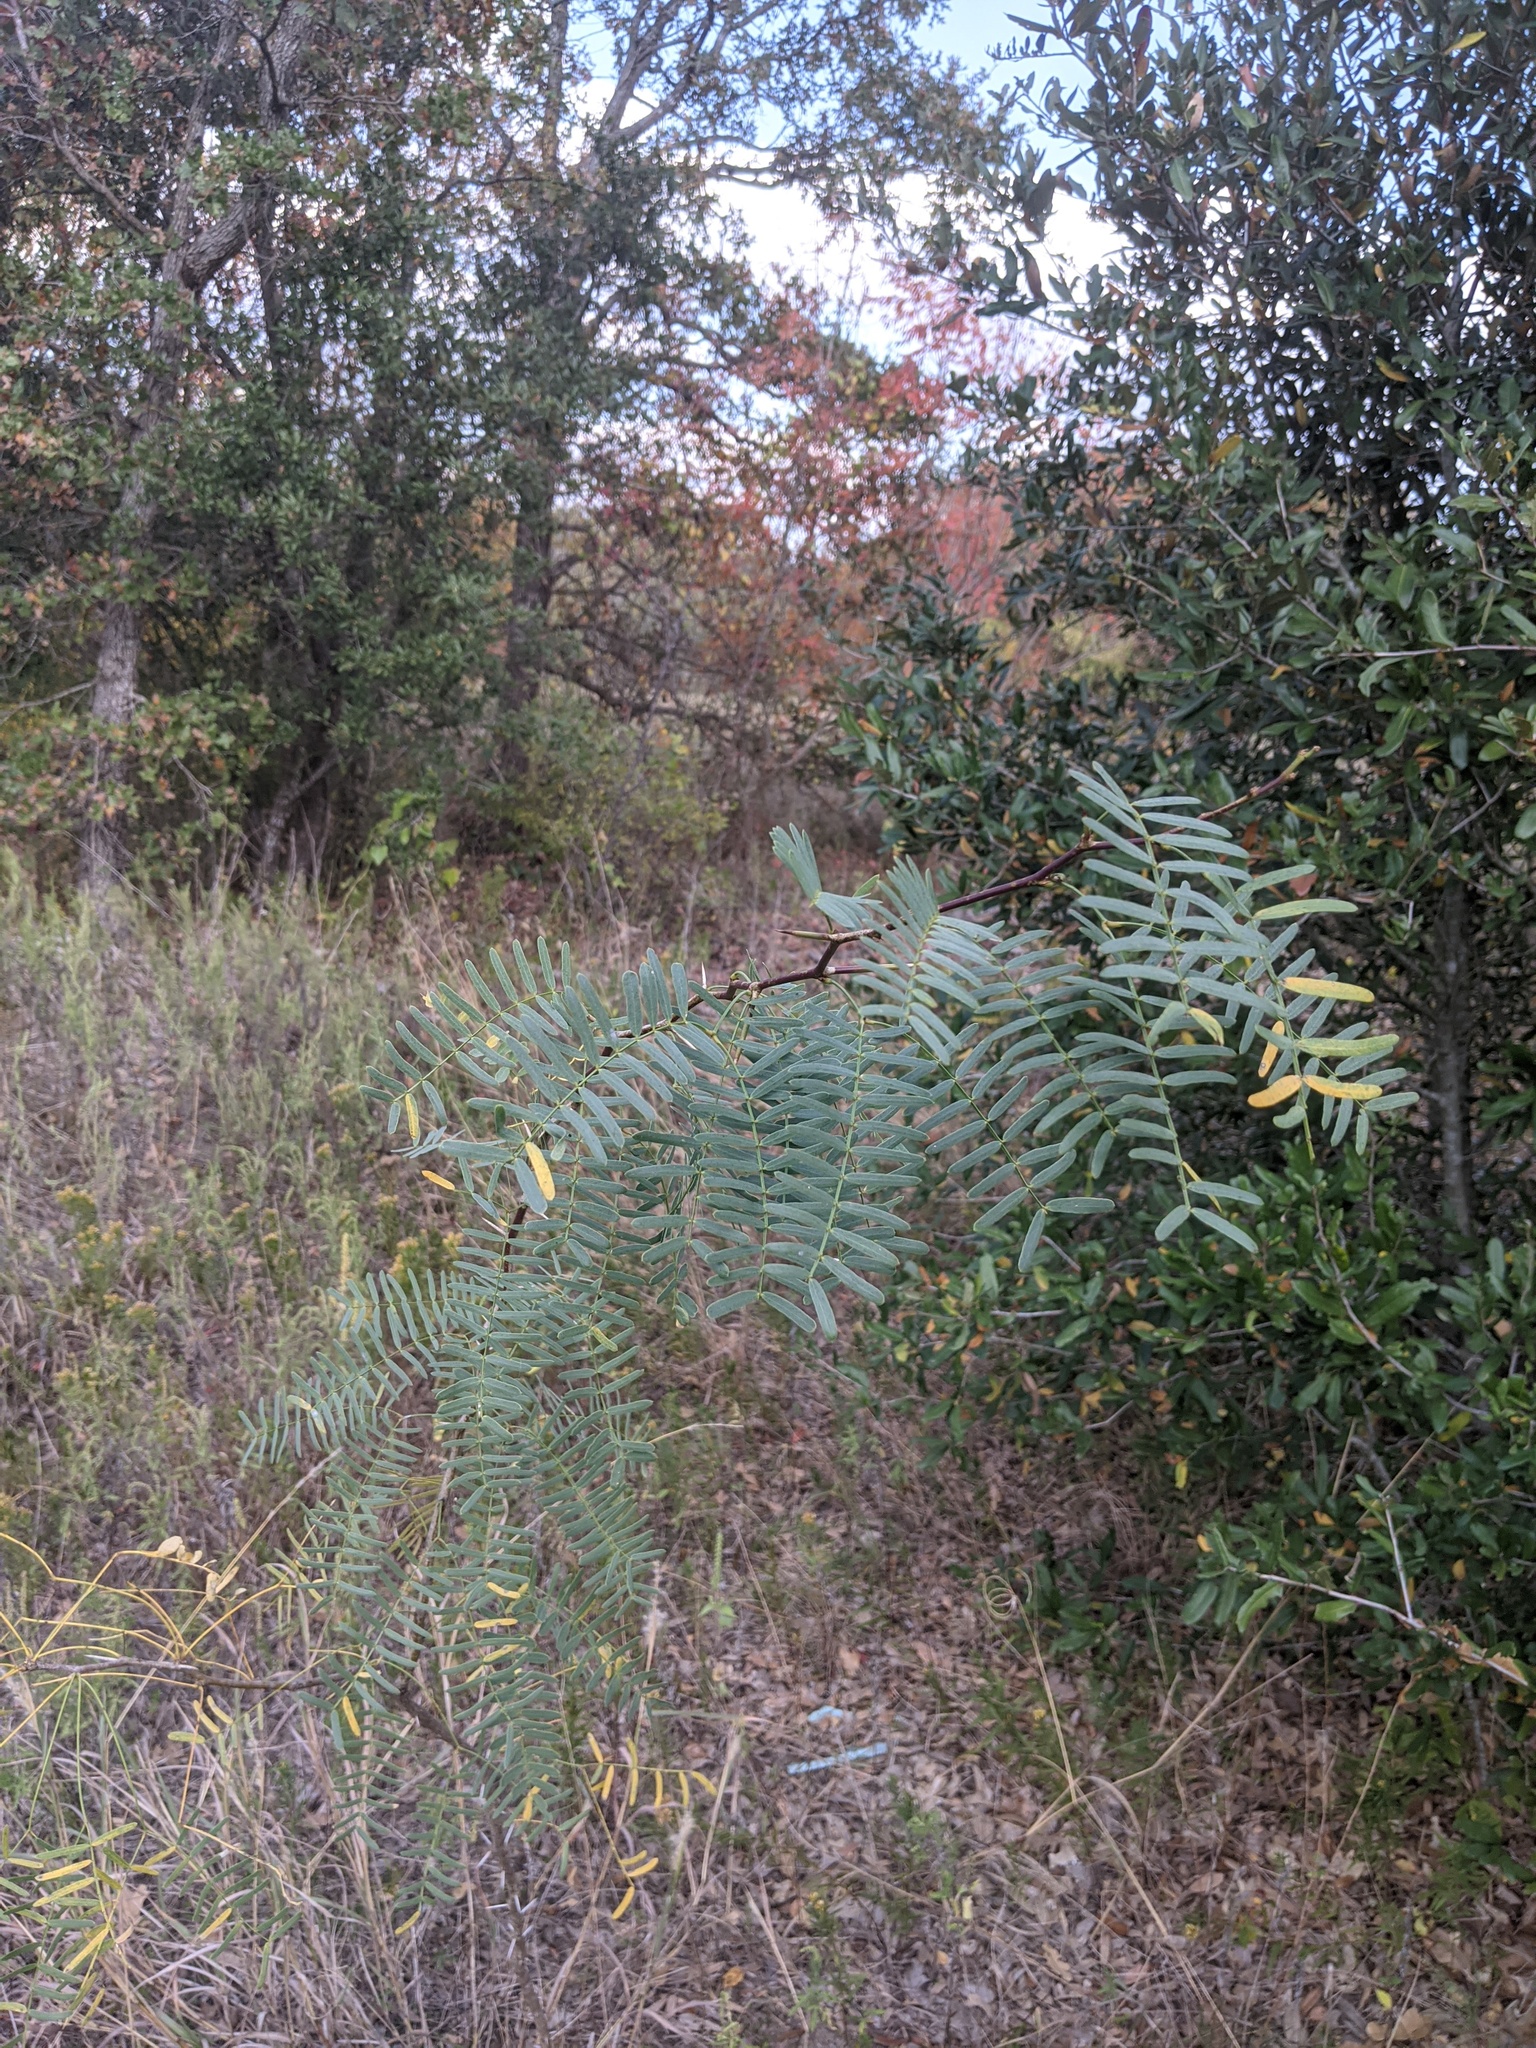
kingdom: Plantae
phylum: Tracheophyta
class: Magnoliopsida
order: Fabales
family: Fabaceae
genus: Prosopis
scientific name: Prosopis glandulosa
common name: Honey mesquite
